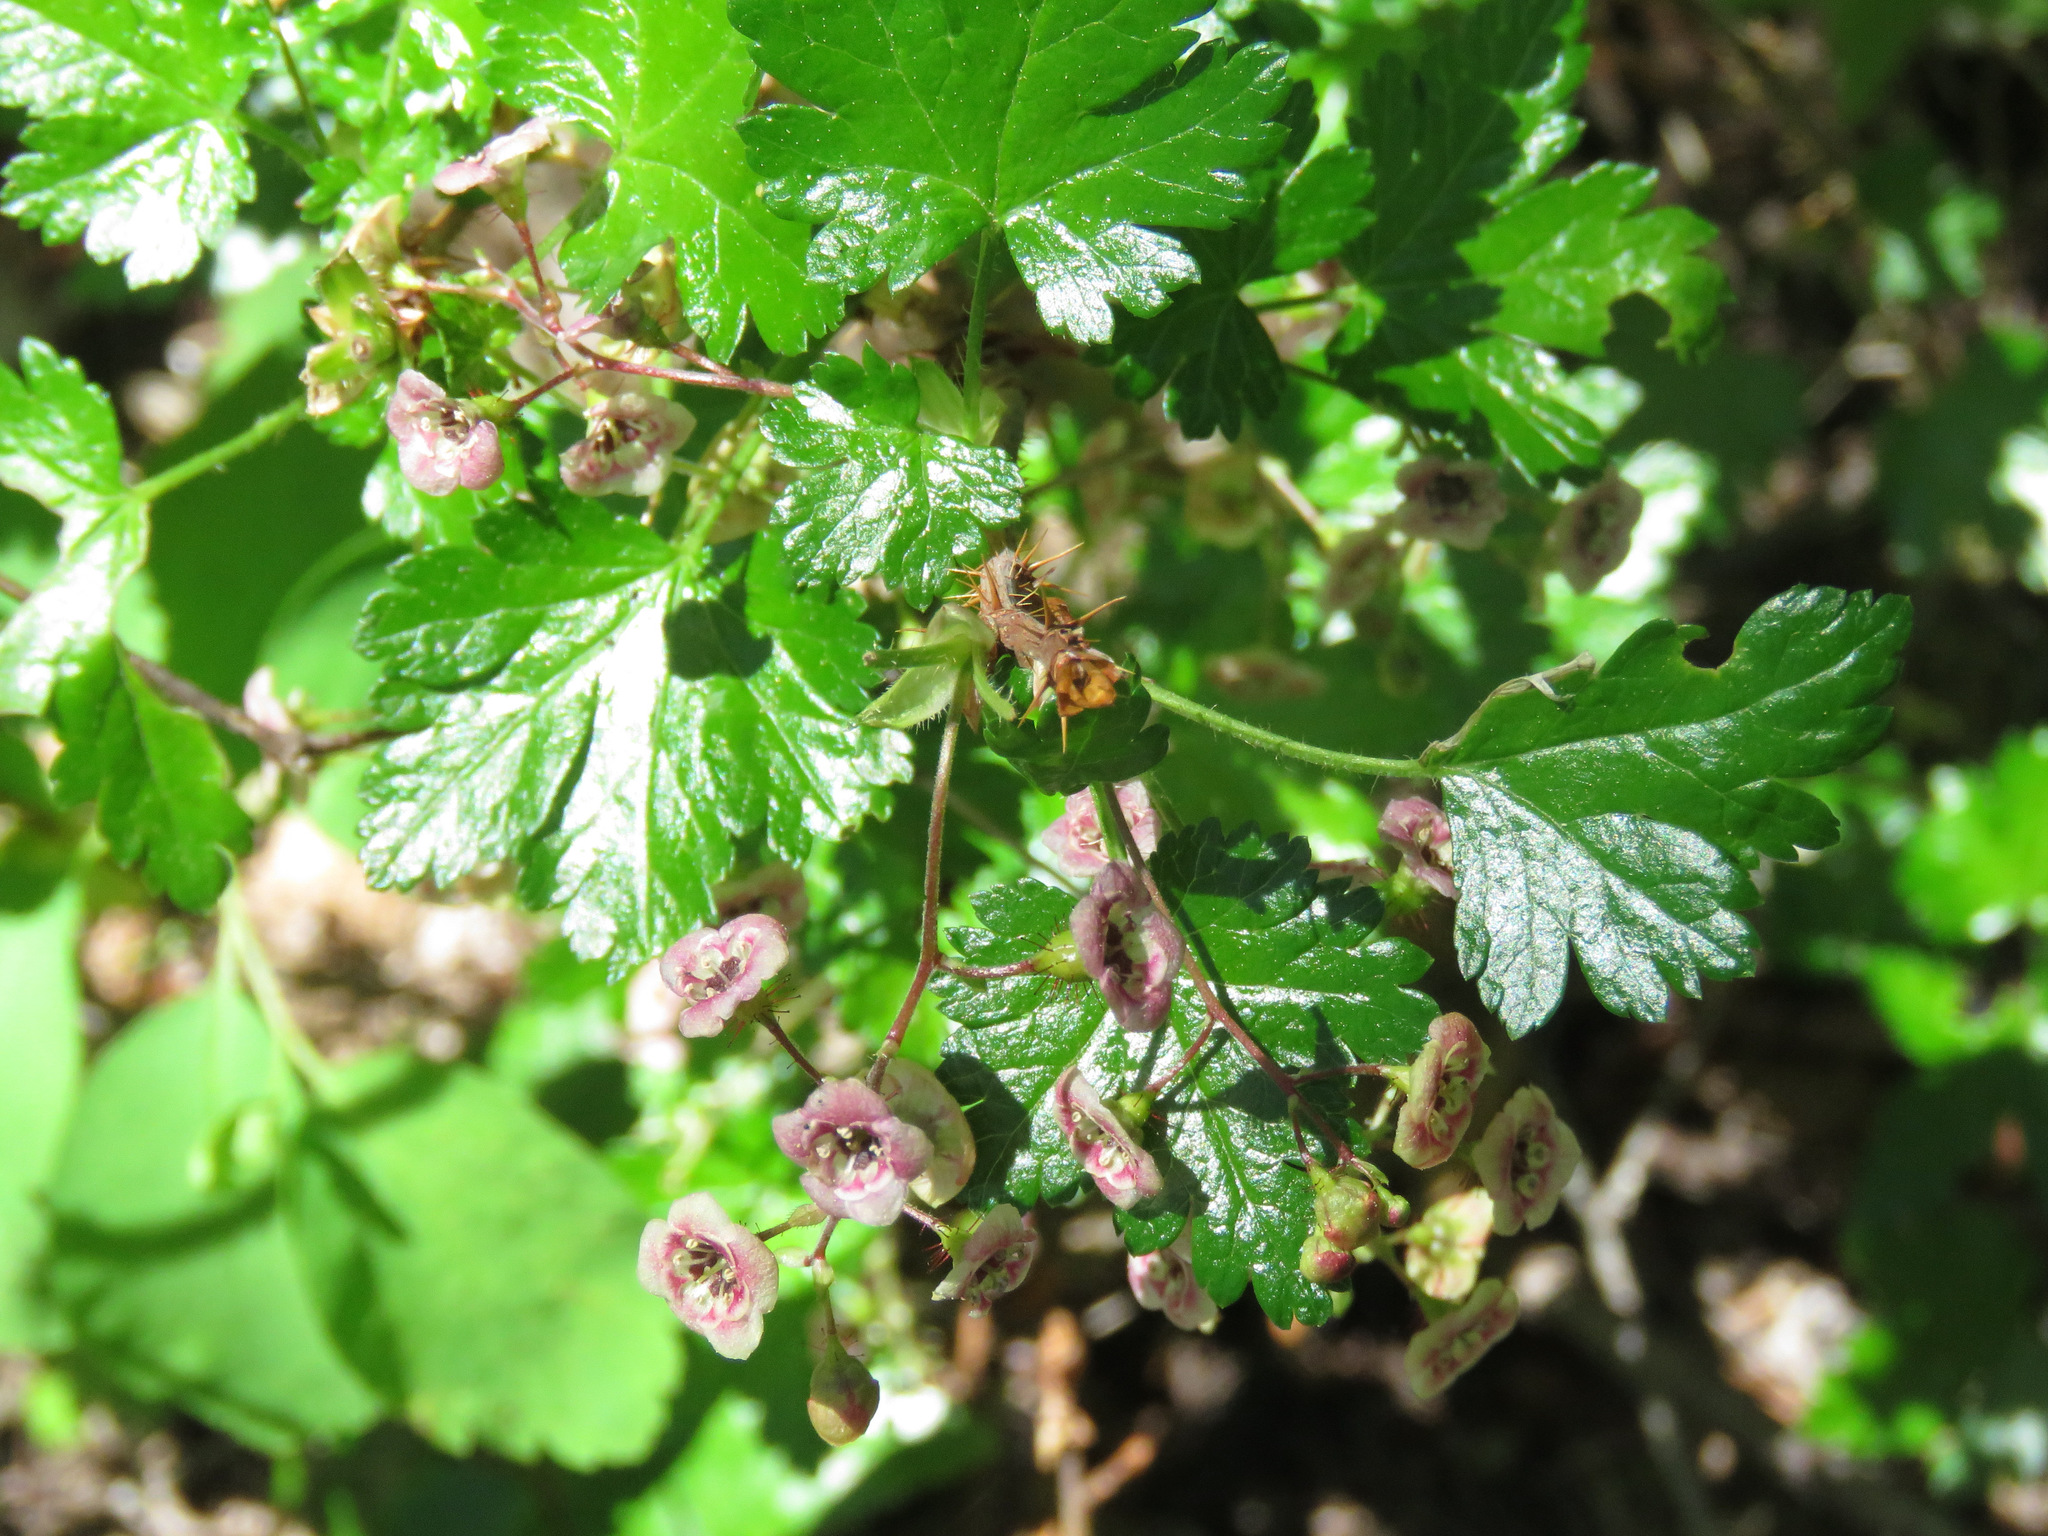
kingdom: Plantae
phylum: Tracheophyta
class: Magnoliopsida
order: Saxifragales
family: Grossulariaceae
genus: Ribes
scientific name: Ribes lacustre
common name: Black gooseberry
